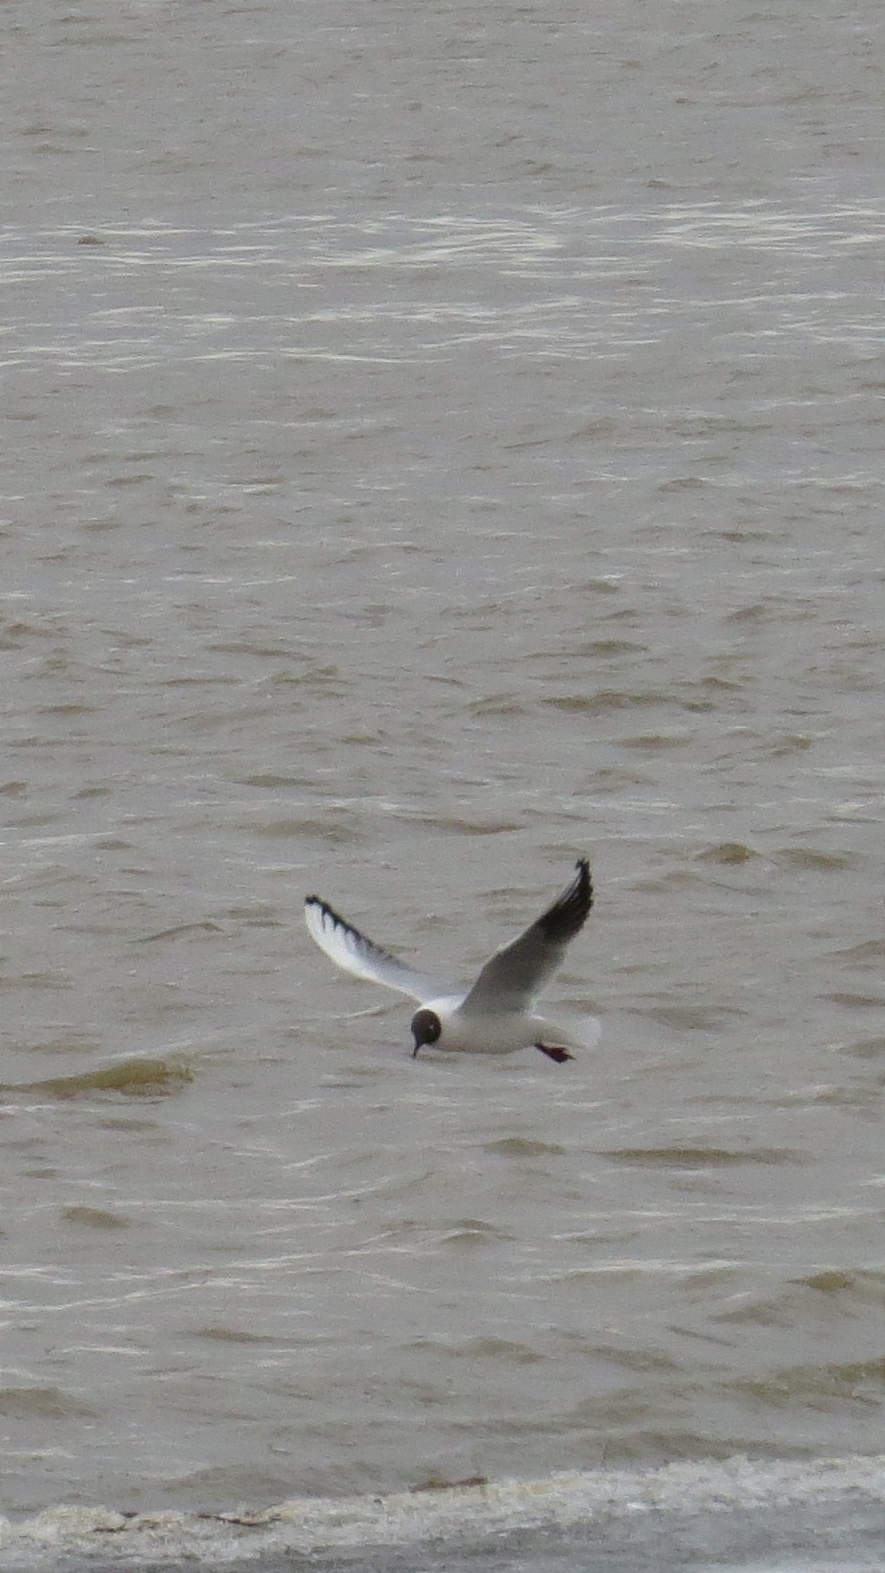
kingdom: Animalia
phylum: Chordata
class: Aves
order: Charadriiformes
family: Laridae
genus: Chroicocephalus
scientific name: Chroicocephalus ridibundus
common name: Black-headed gull
